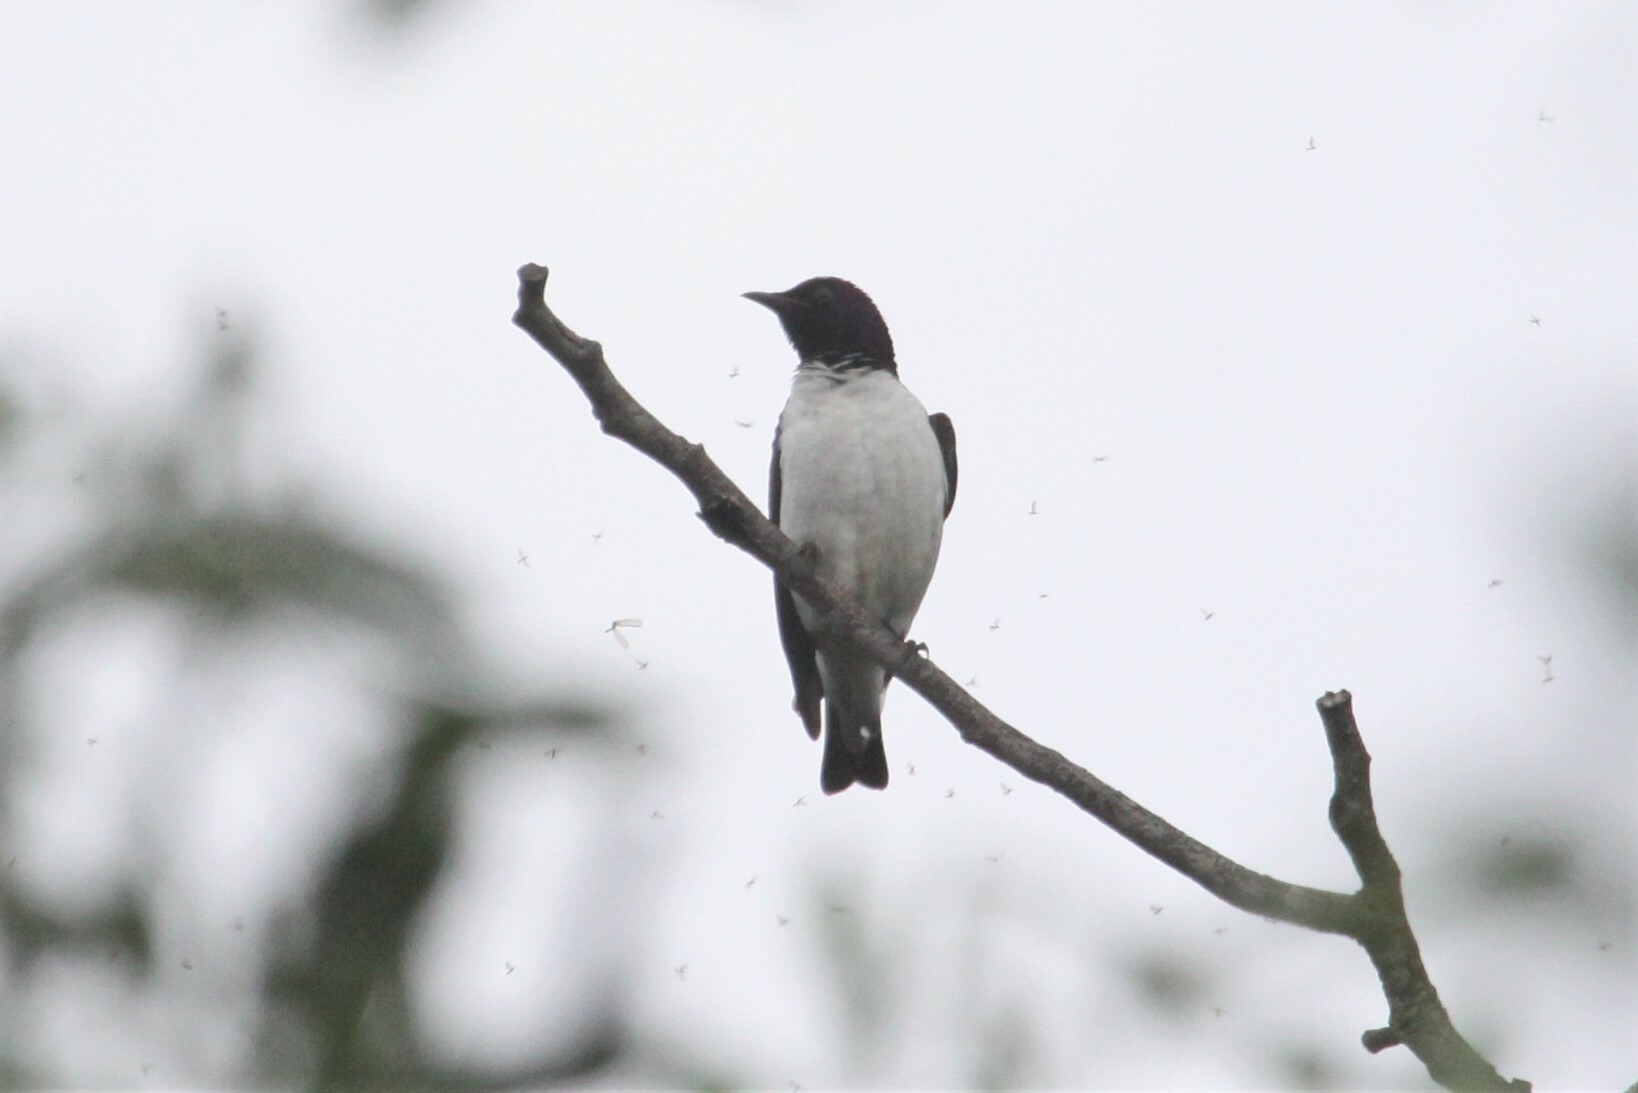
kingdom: Animalia
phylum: Chordata
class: Aves
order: Passeriformes
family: Sturnidae
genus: Cinnyricinclus
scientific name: Cinnyricinclus leucogaster
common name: Violet-backed starling
